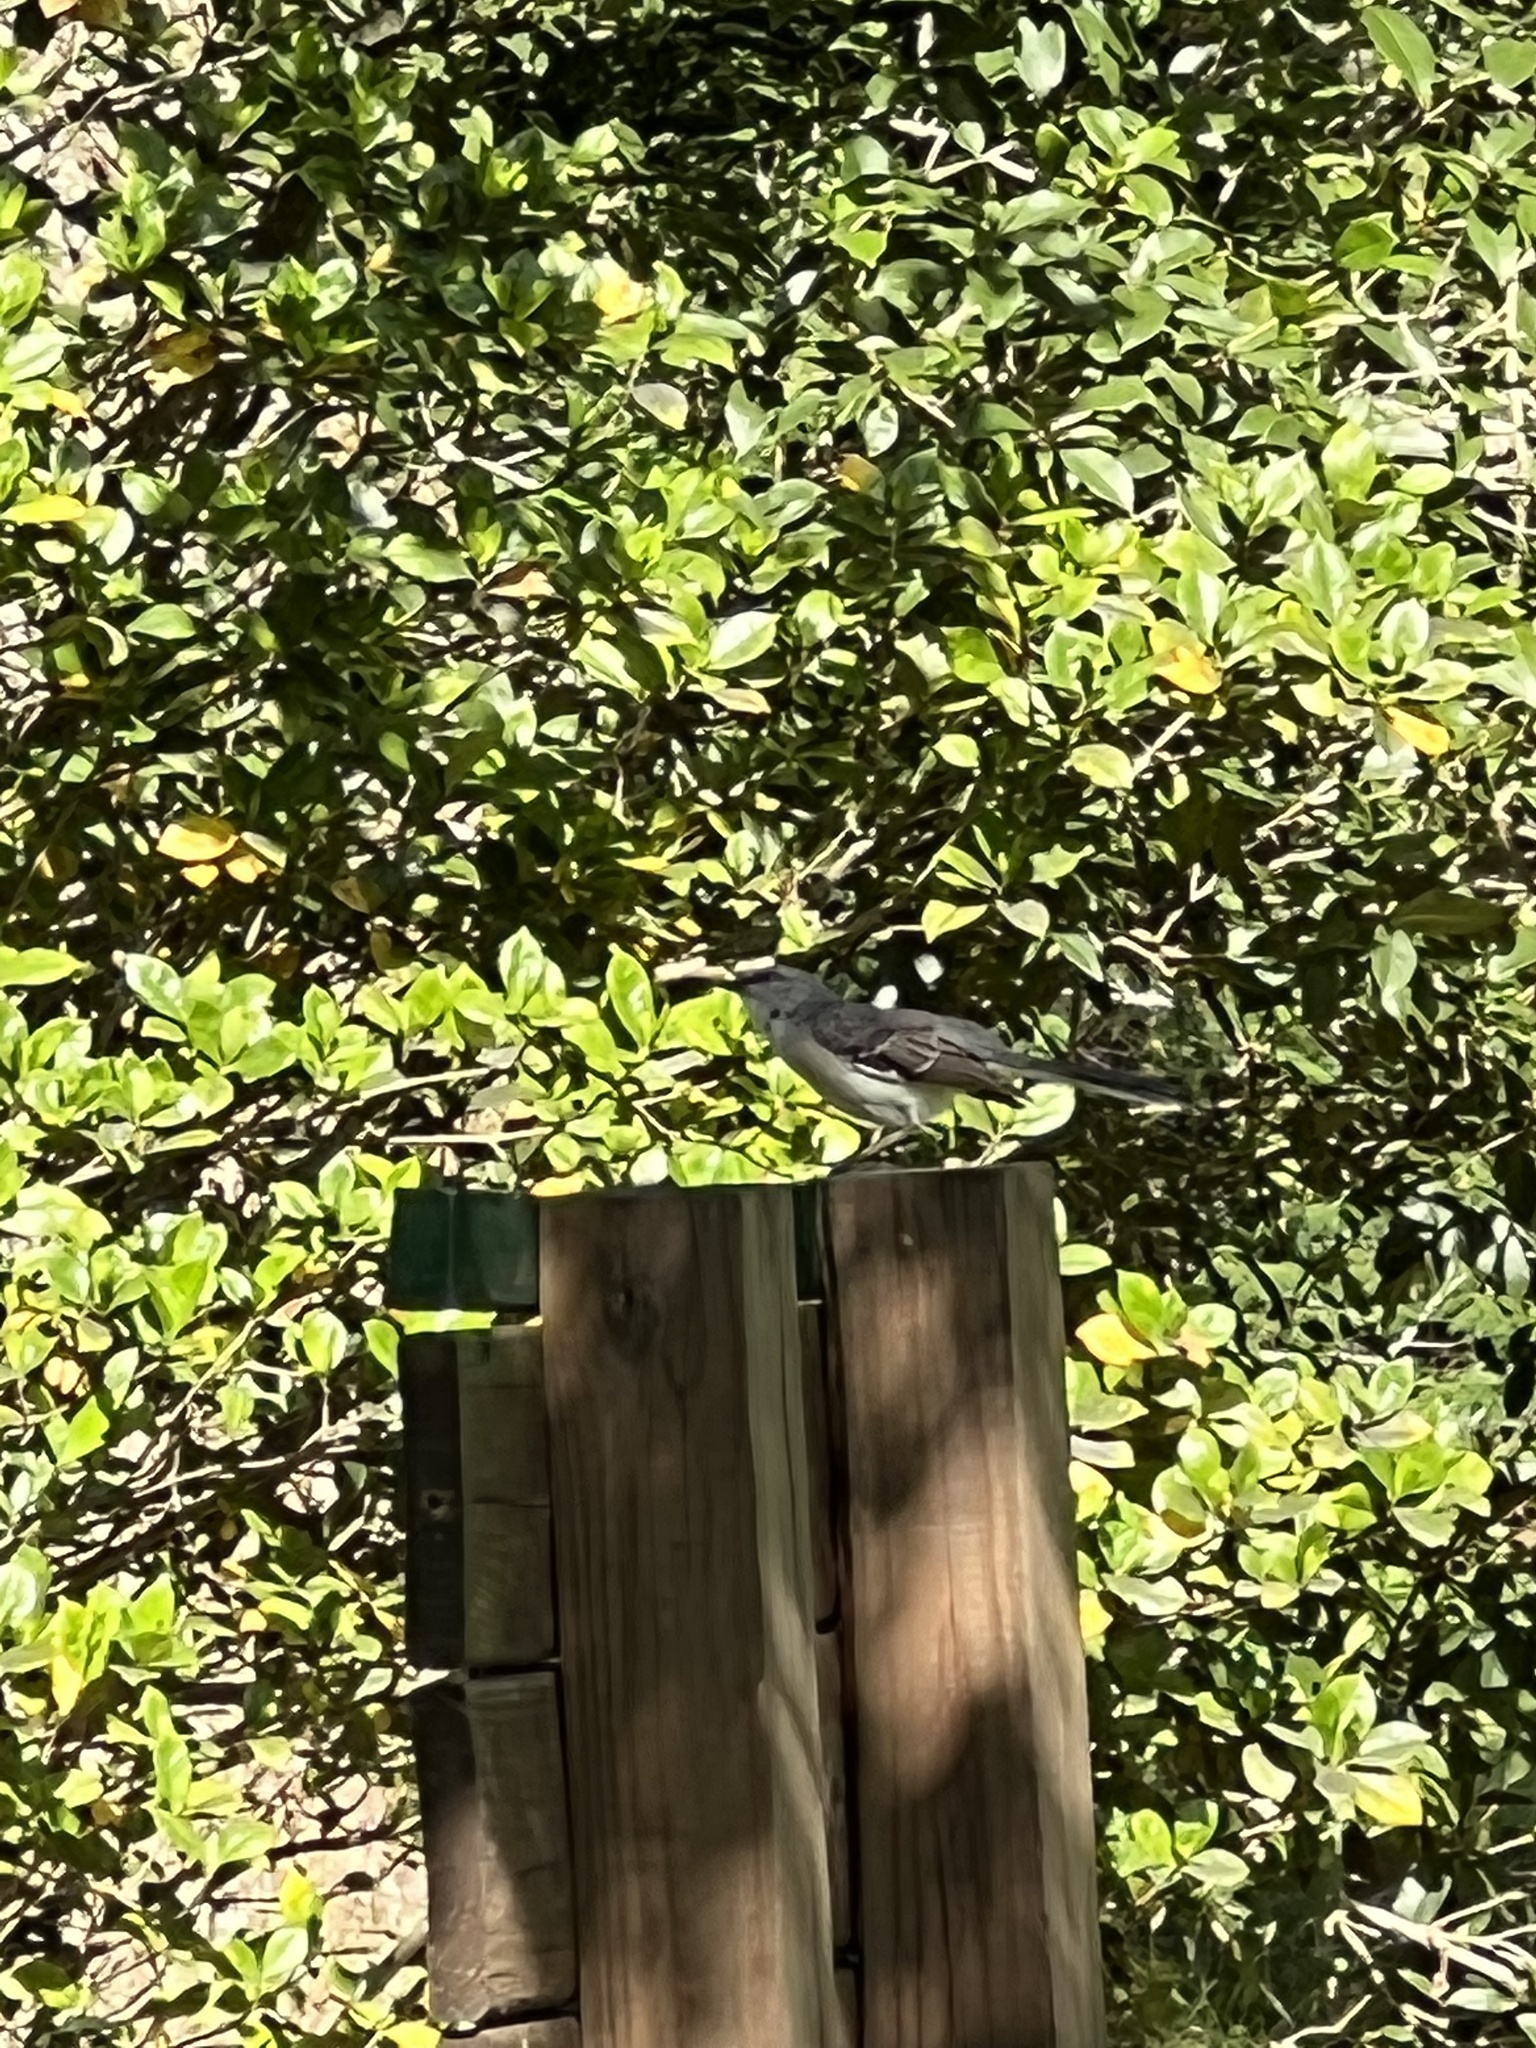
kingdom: Animalia
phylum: Chordata
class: Aves
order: Passeriformes
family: Mimidae
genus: Mimus
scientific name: Mimus polyglottos
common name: Northern mockingbird
